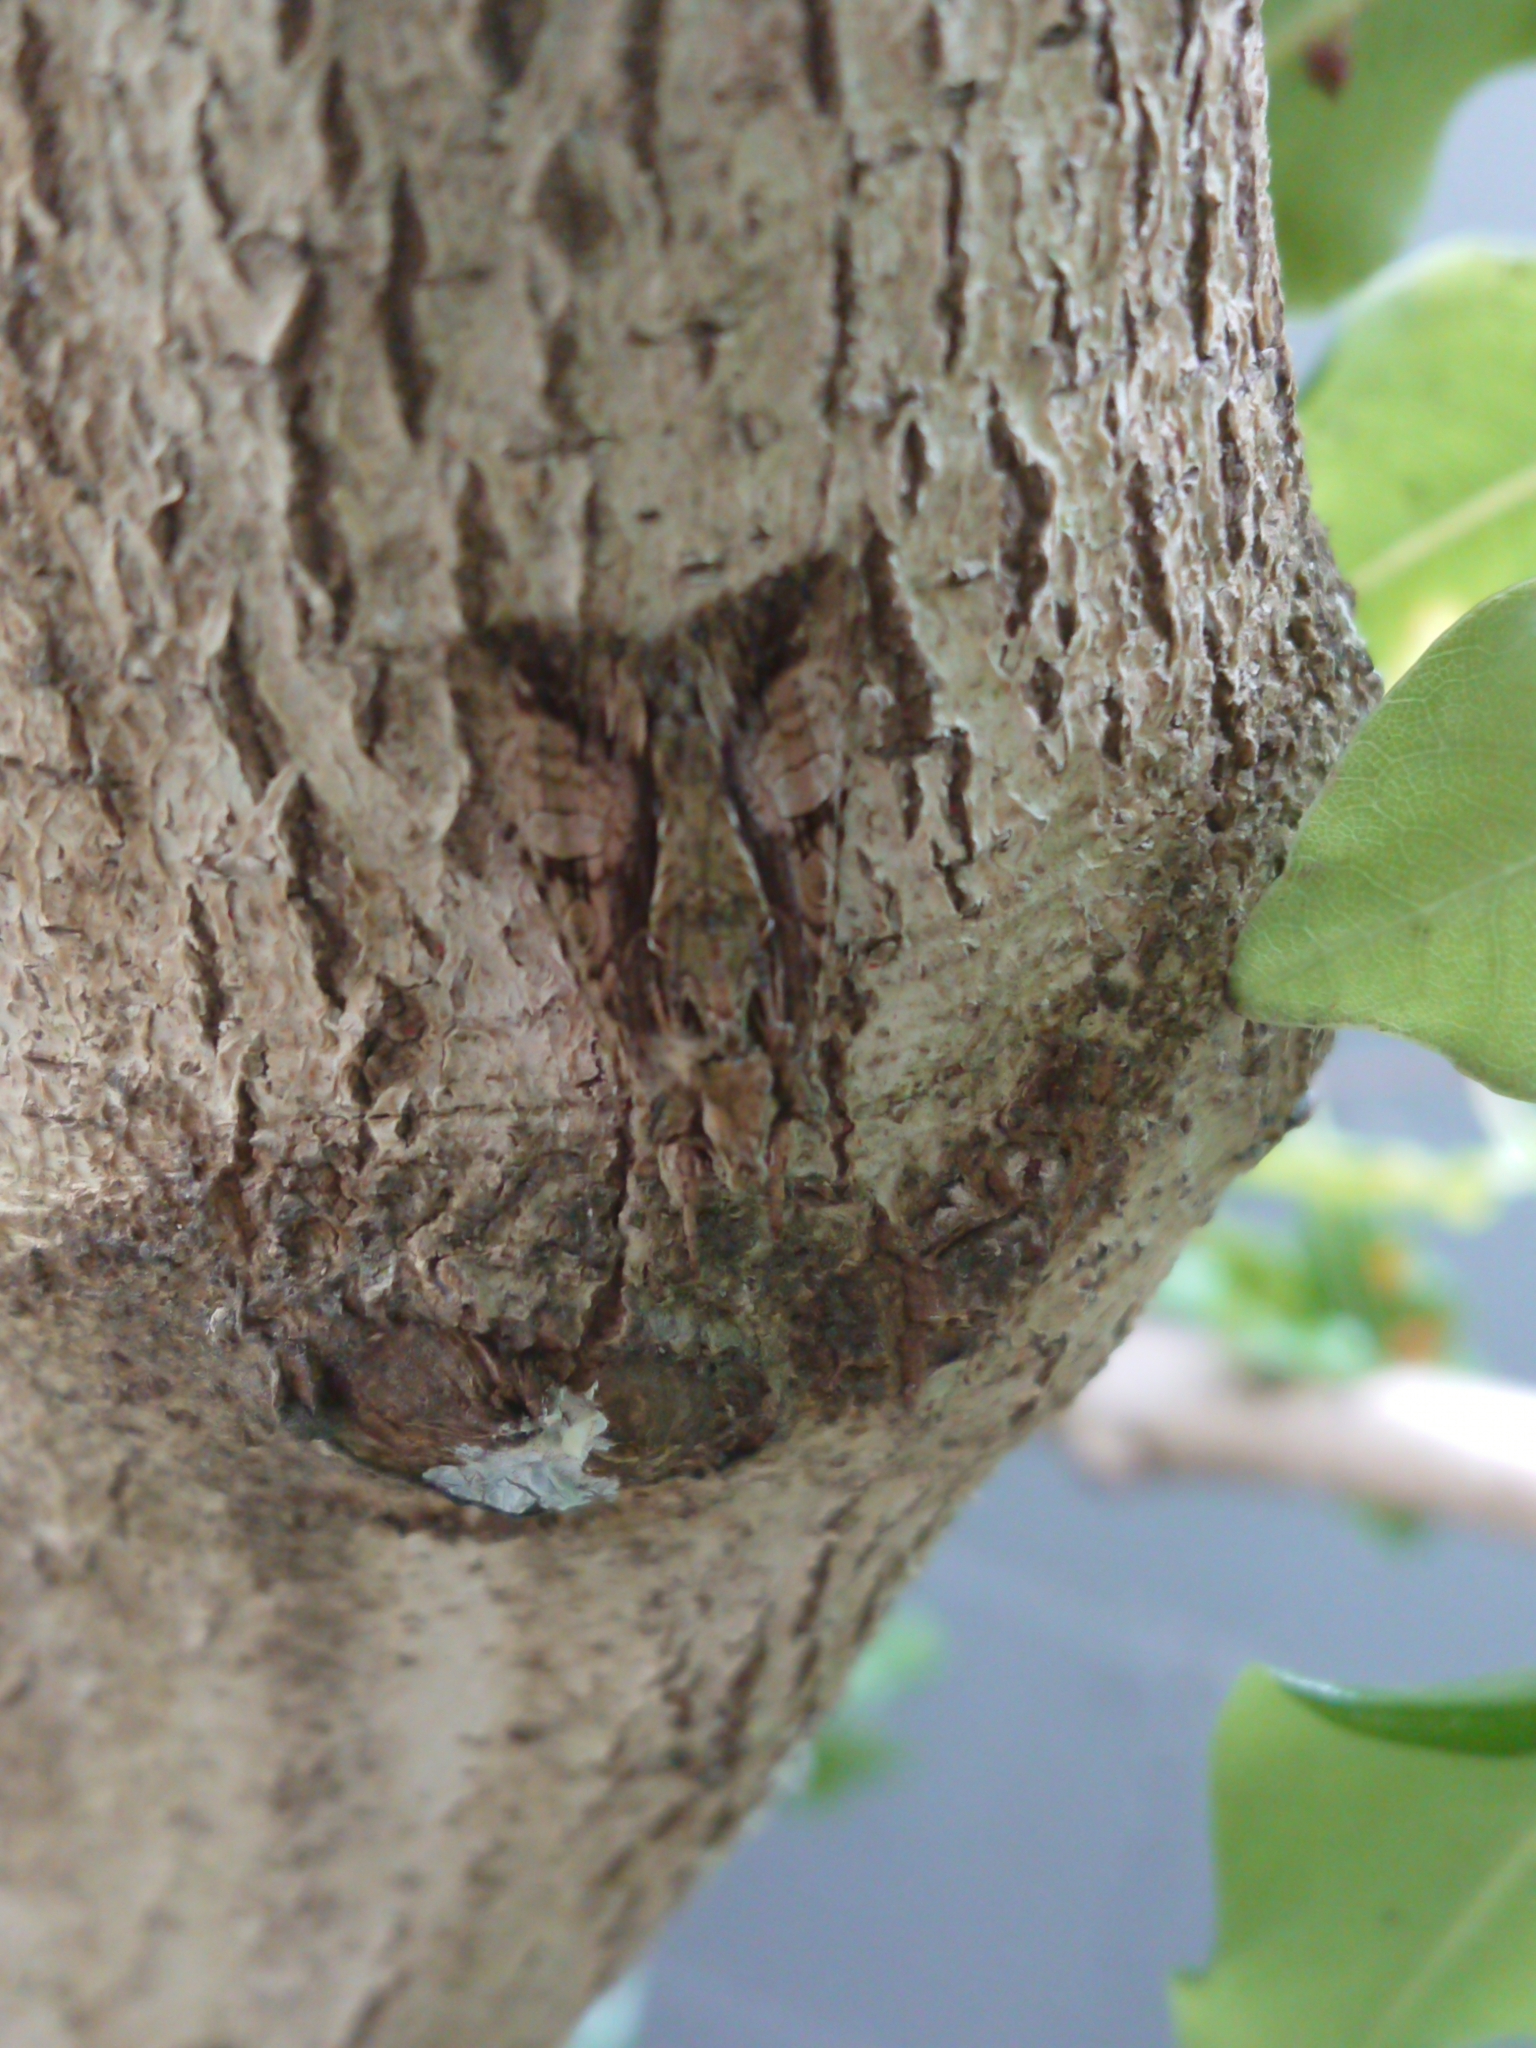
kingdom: Animalia
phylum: Arthropoda
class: Insecta
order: Lepidoptera
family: Noctuidae
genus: Meterana
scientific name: Meterana decorata
